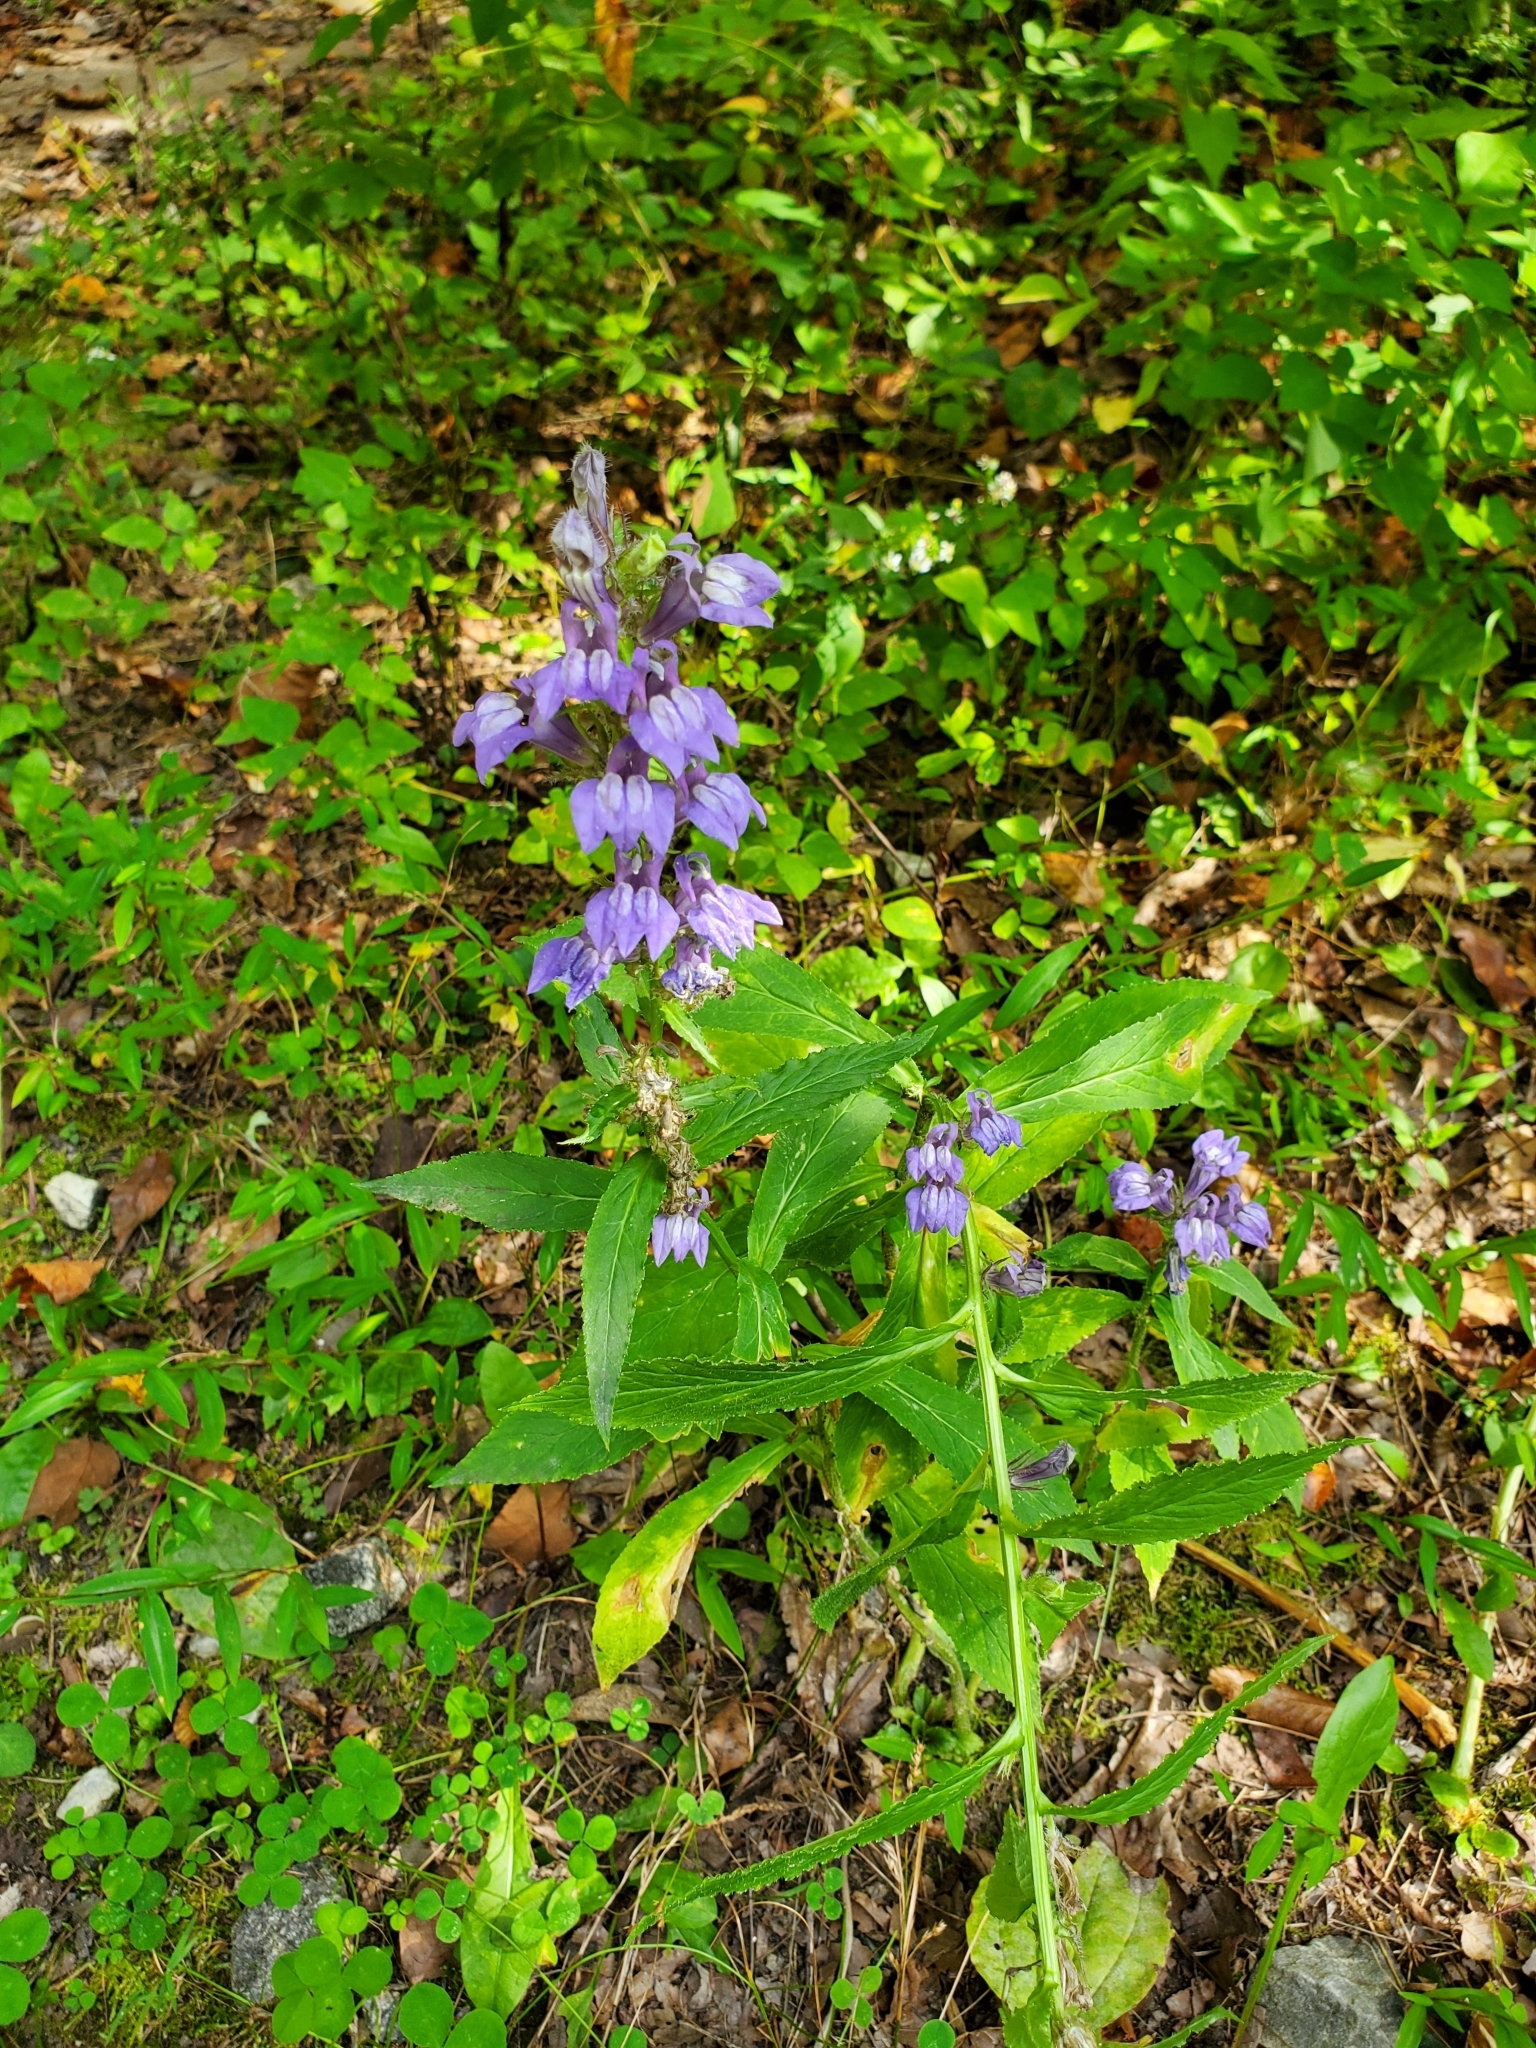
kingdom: Plantae
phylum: Tracheophyta
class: Magnoliopsida
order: Asterales
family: Campanulaceae
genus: Lobelia
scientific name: Lobelia siphilitica
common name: Great lobelia
